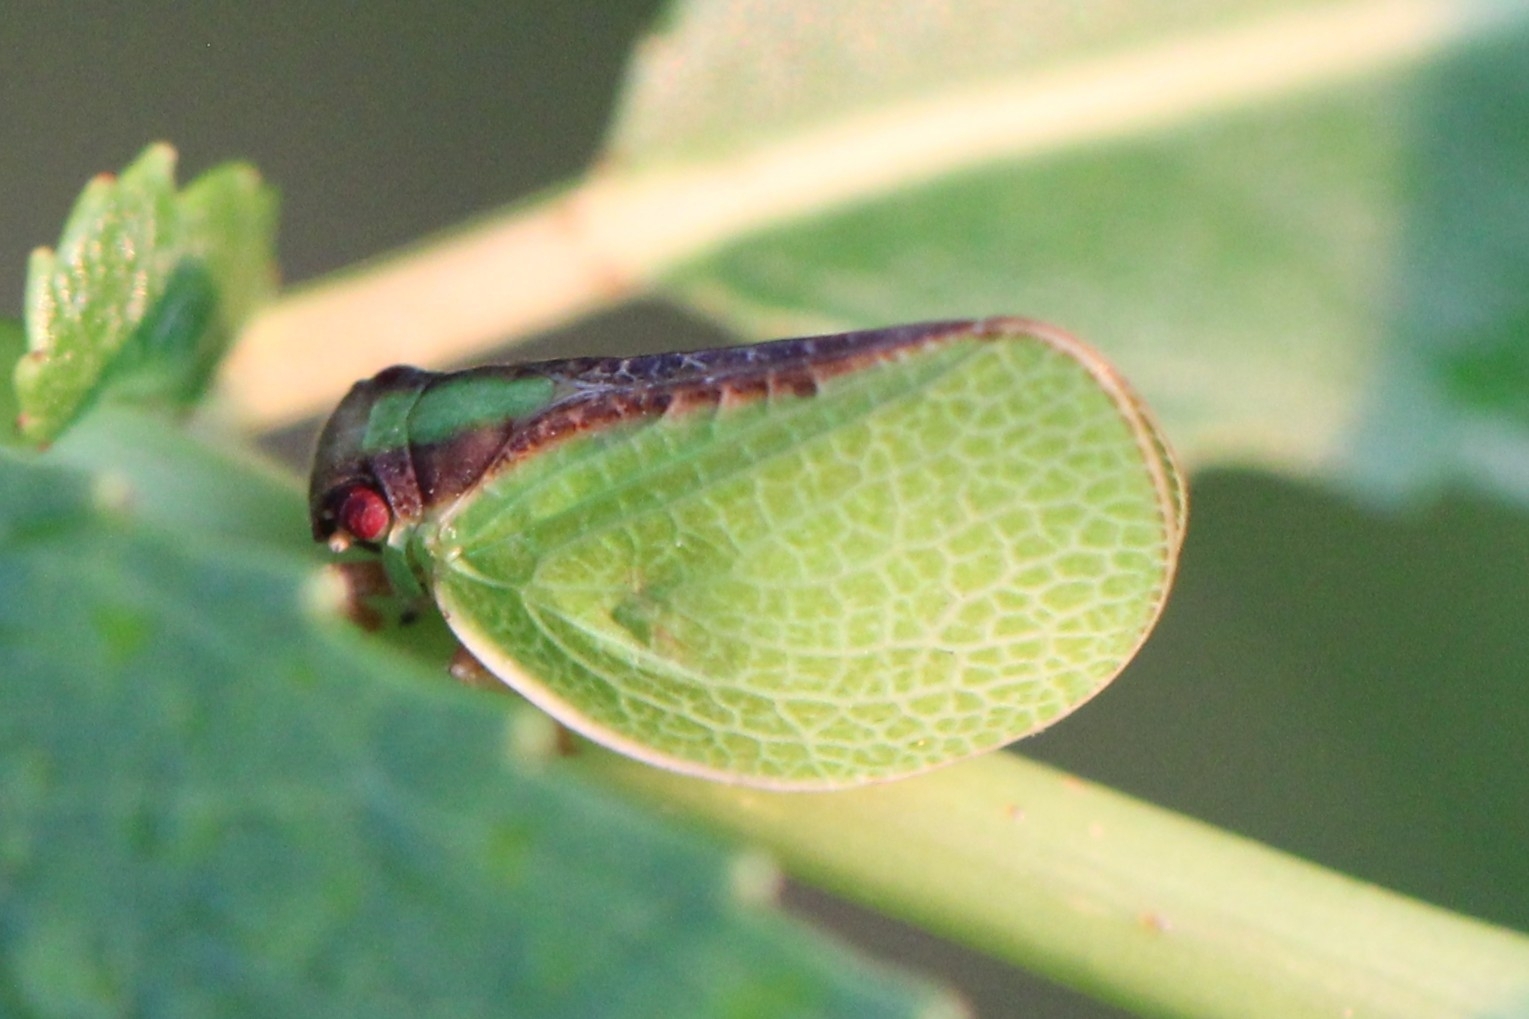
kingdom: Animalia
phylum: Arthropoda
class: Insecta
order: Hemiptera
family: Acanaloniidae
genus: Acanalonia
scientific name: Acanalonia bivittata
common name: Two-striped planthopper
